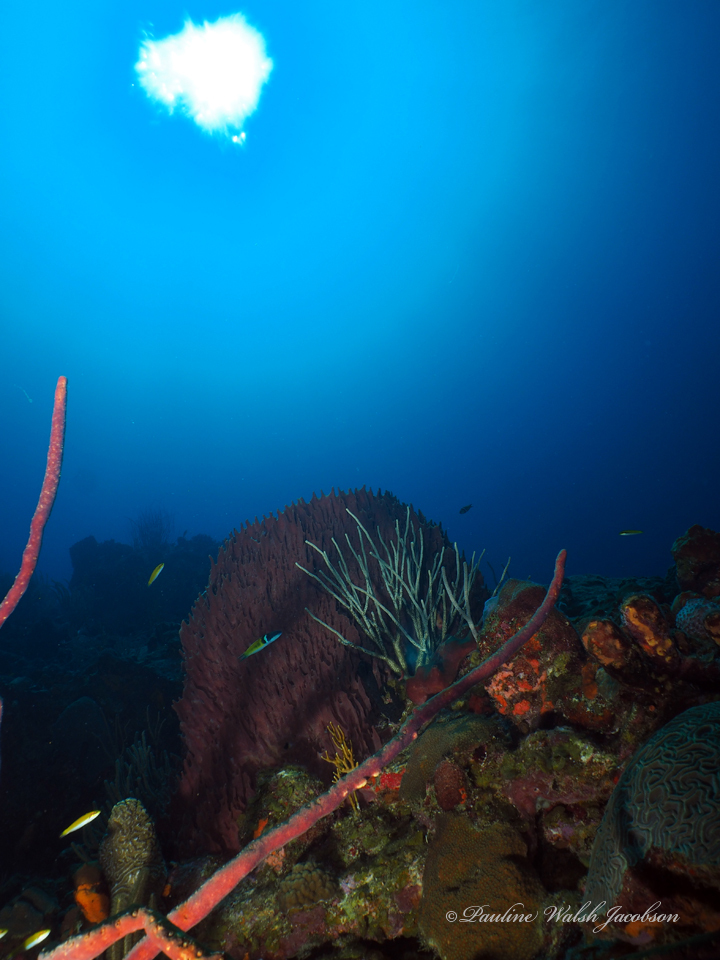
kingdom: Animalia
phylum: Porifera
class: Demospongiae
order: Haplosclerida
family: Petrosiidae
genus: Xestospongia
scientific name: Xestospongia muta
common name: Giant barrel sponge
